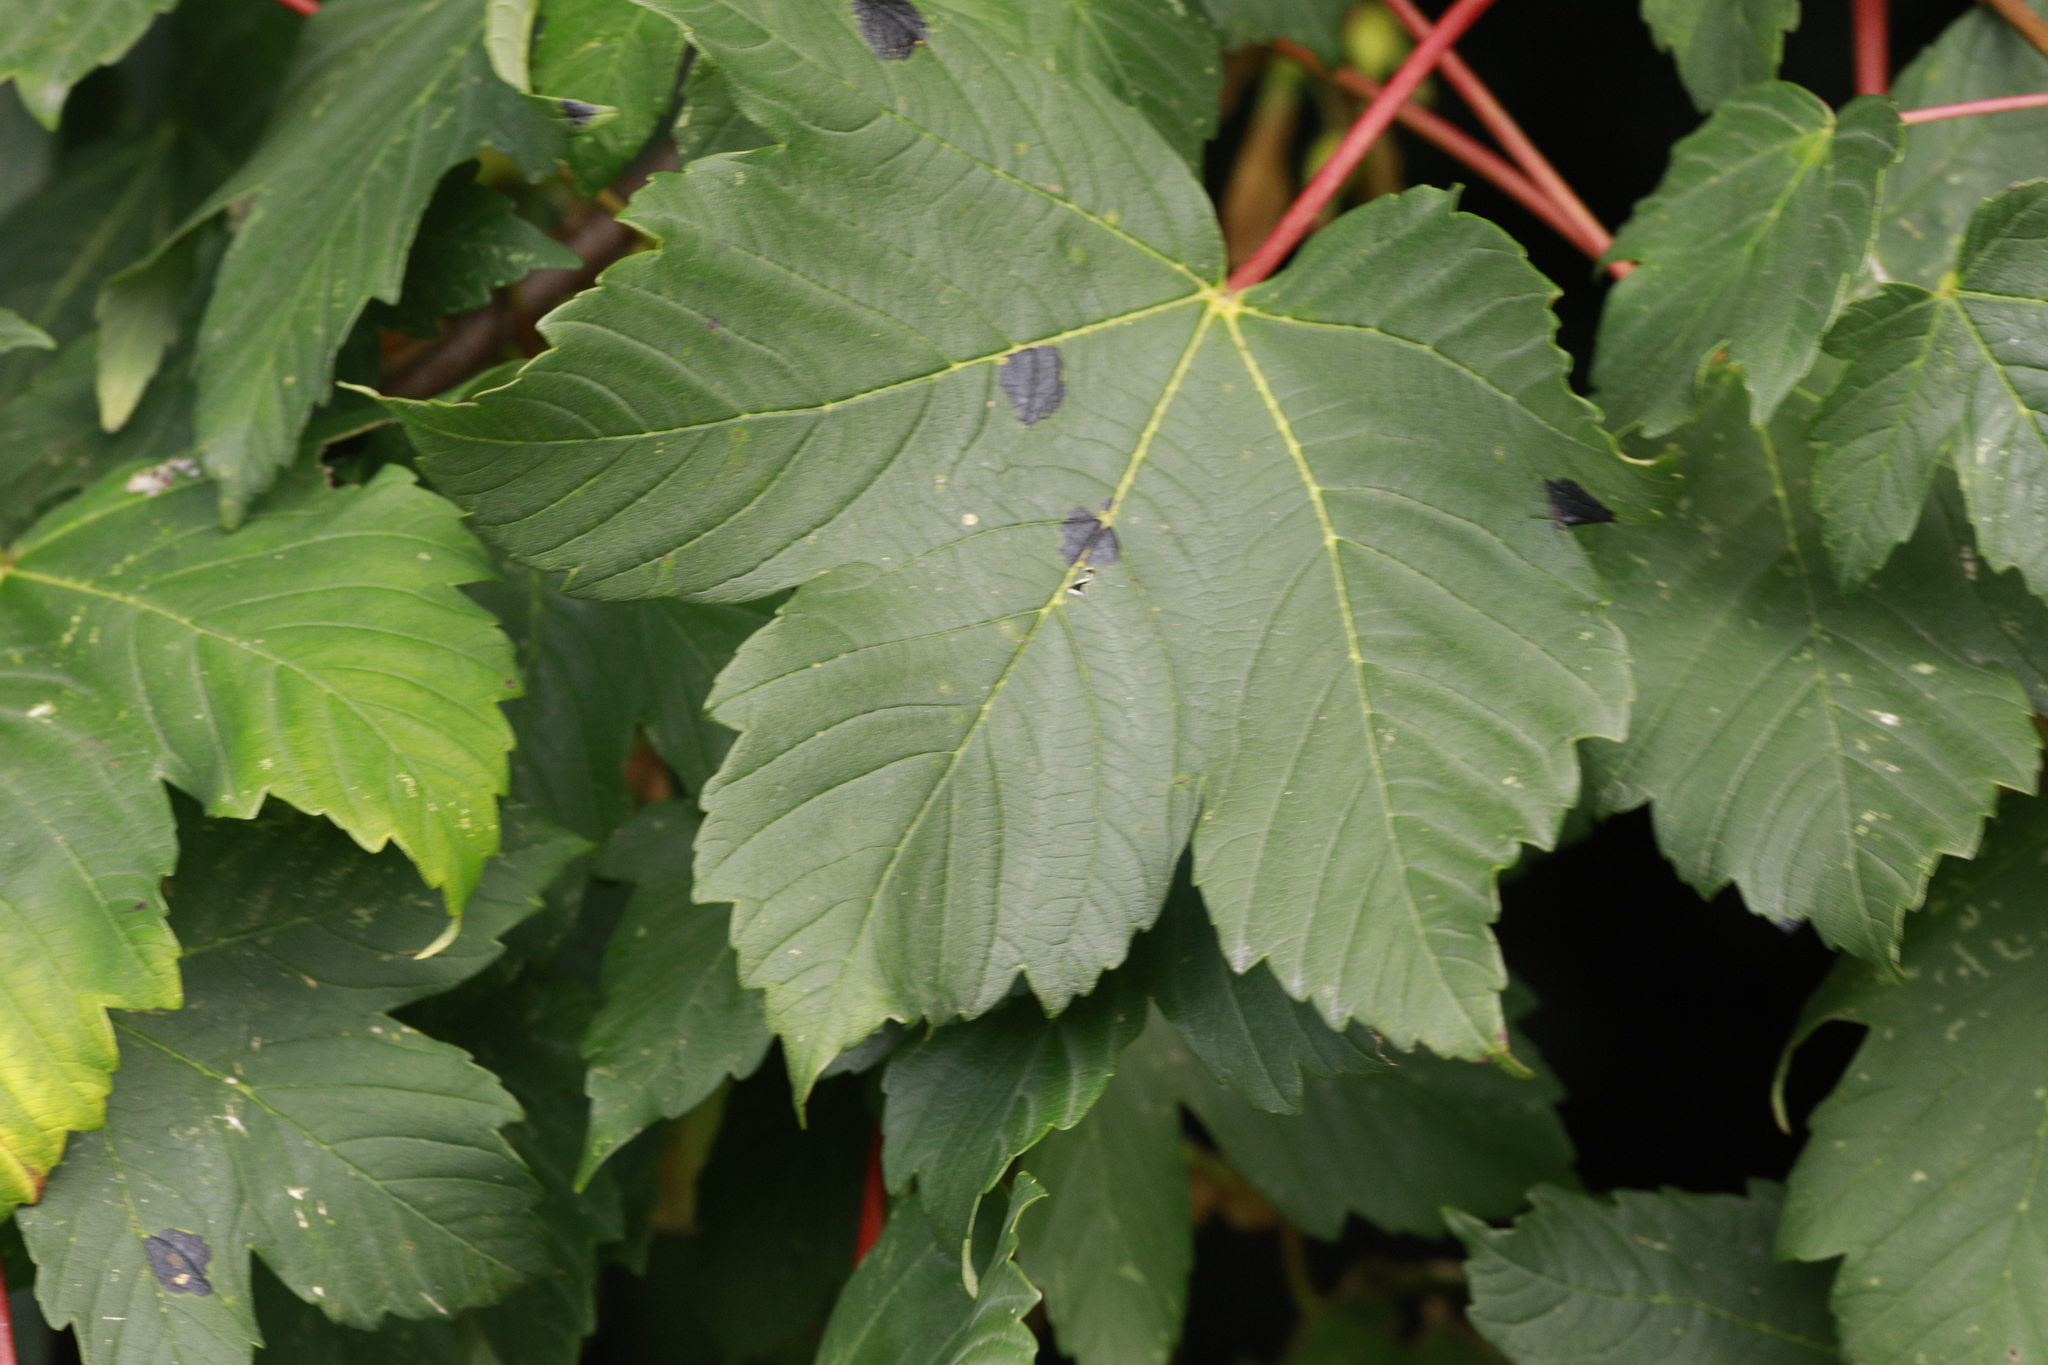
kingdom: Plantae
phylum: Tracheophyta
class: Magnoliopsida
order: Sapindales
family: Sapindaceae
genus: Acer
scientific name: Acer pseudoplatanus
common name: Sycamore
